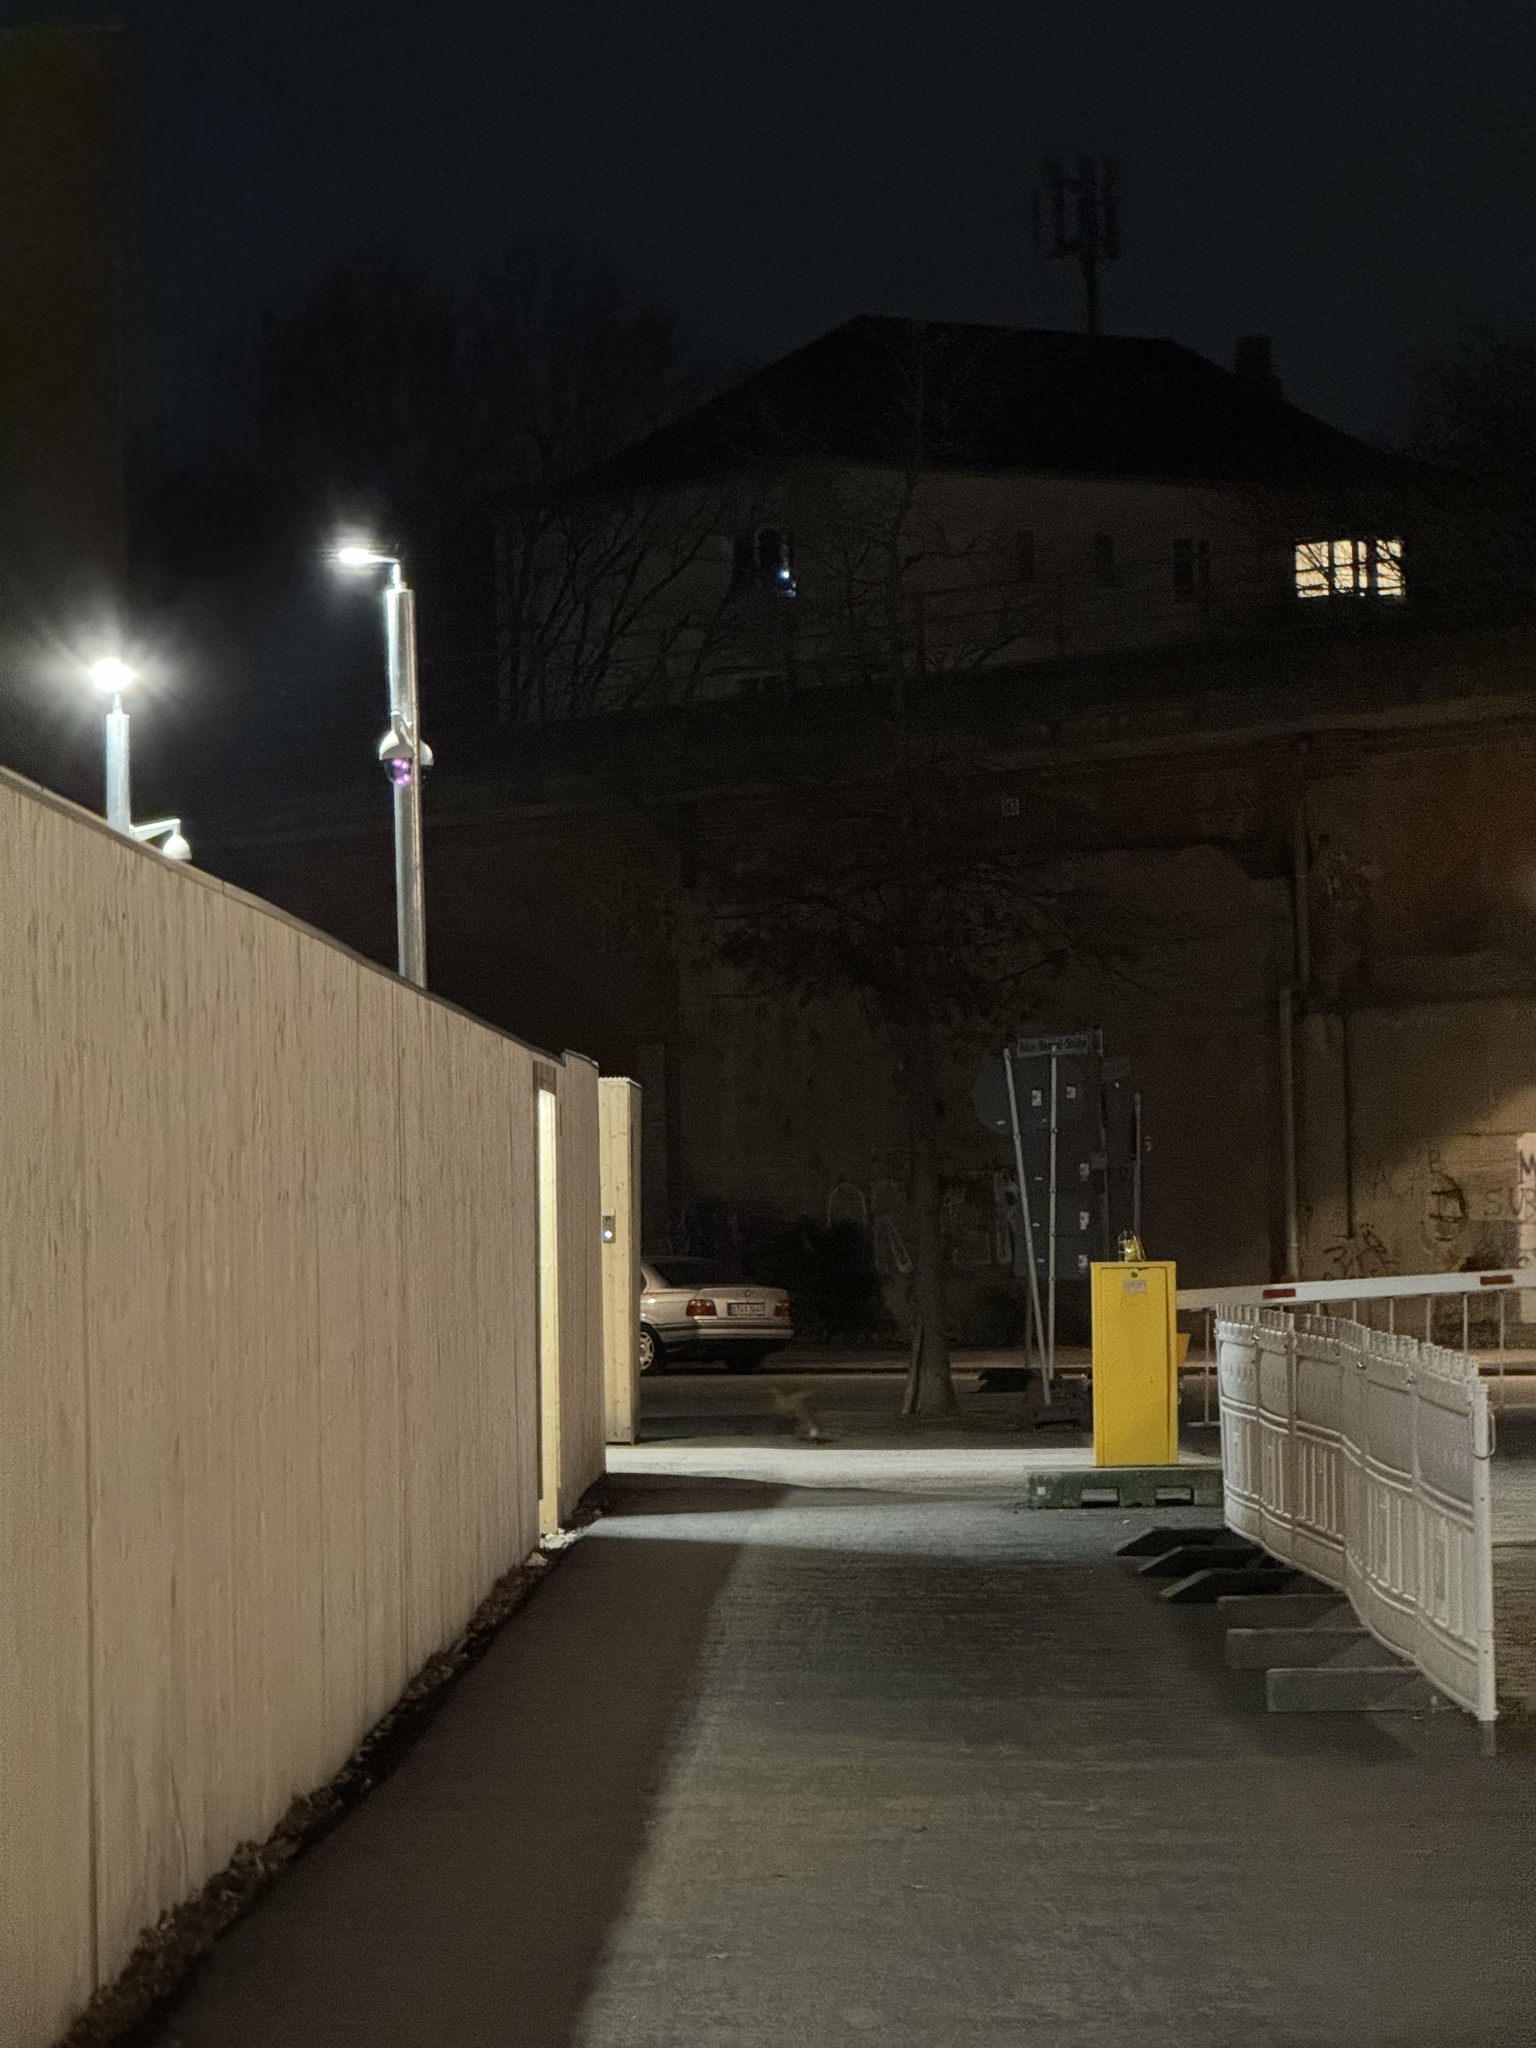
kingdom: Animalia
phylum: Chordata
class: Mammalia
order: Carnivora
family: Canidae
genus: Vulpes
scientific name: Vulpes vulpes
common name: Red fox
